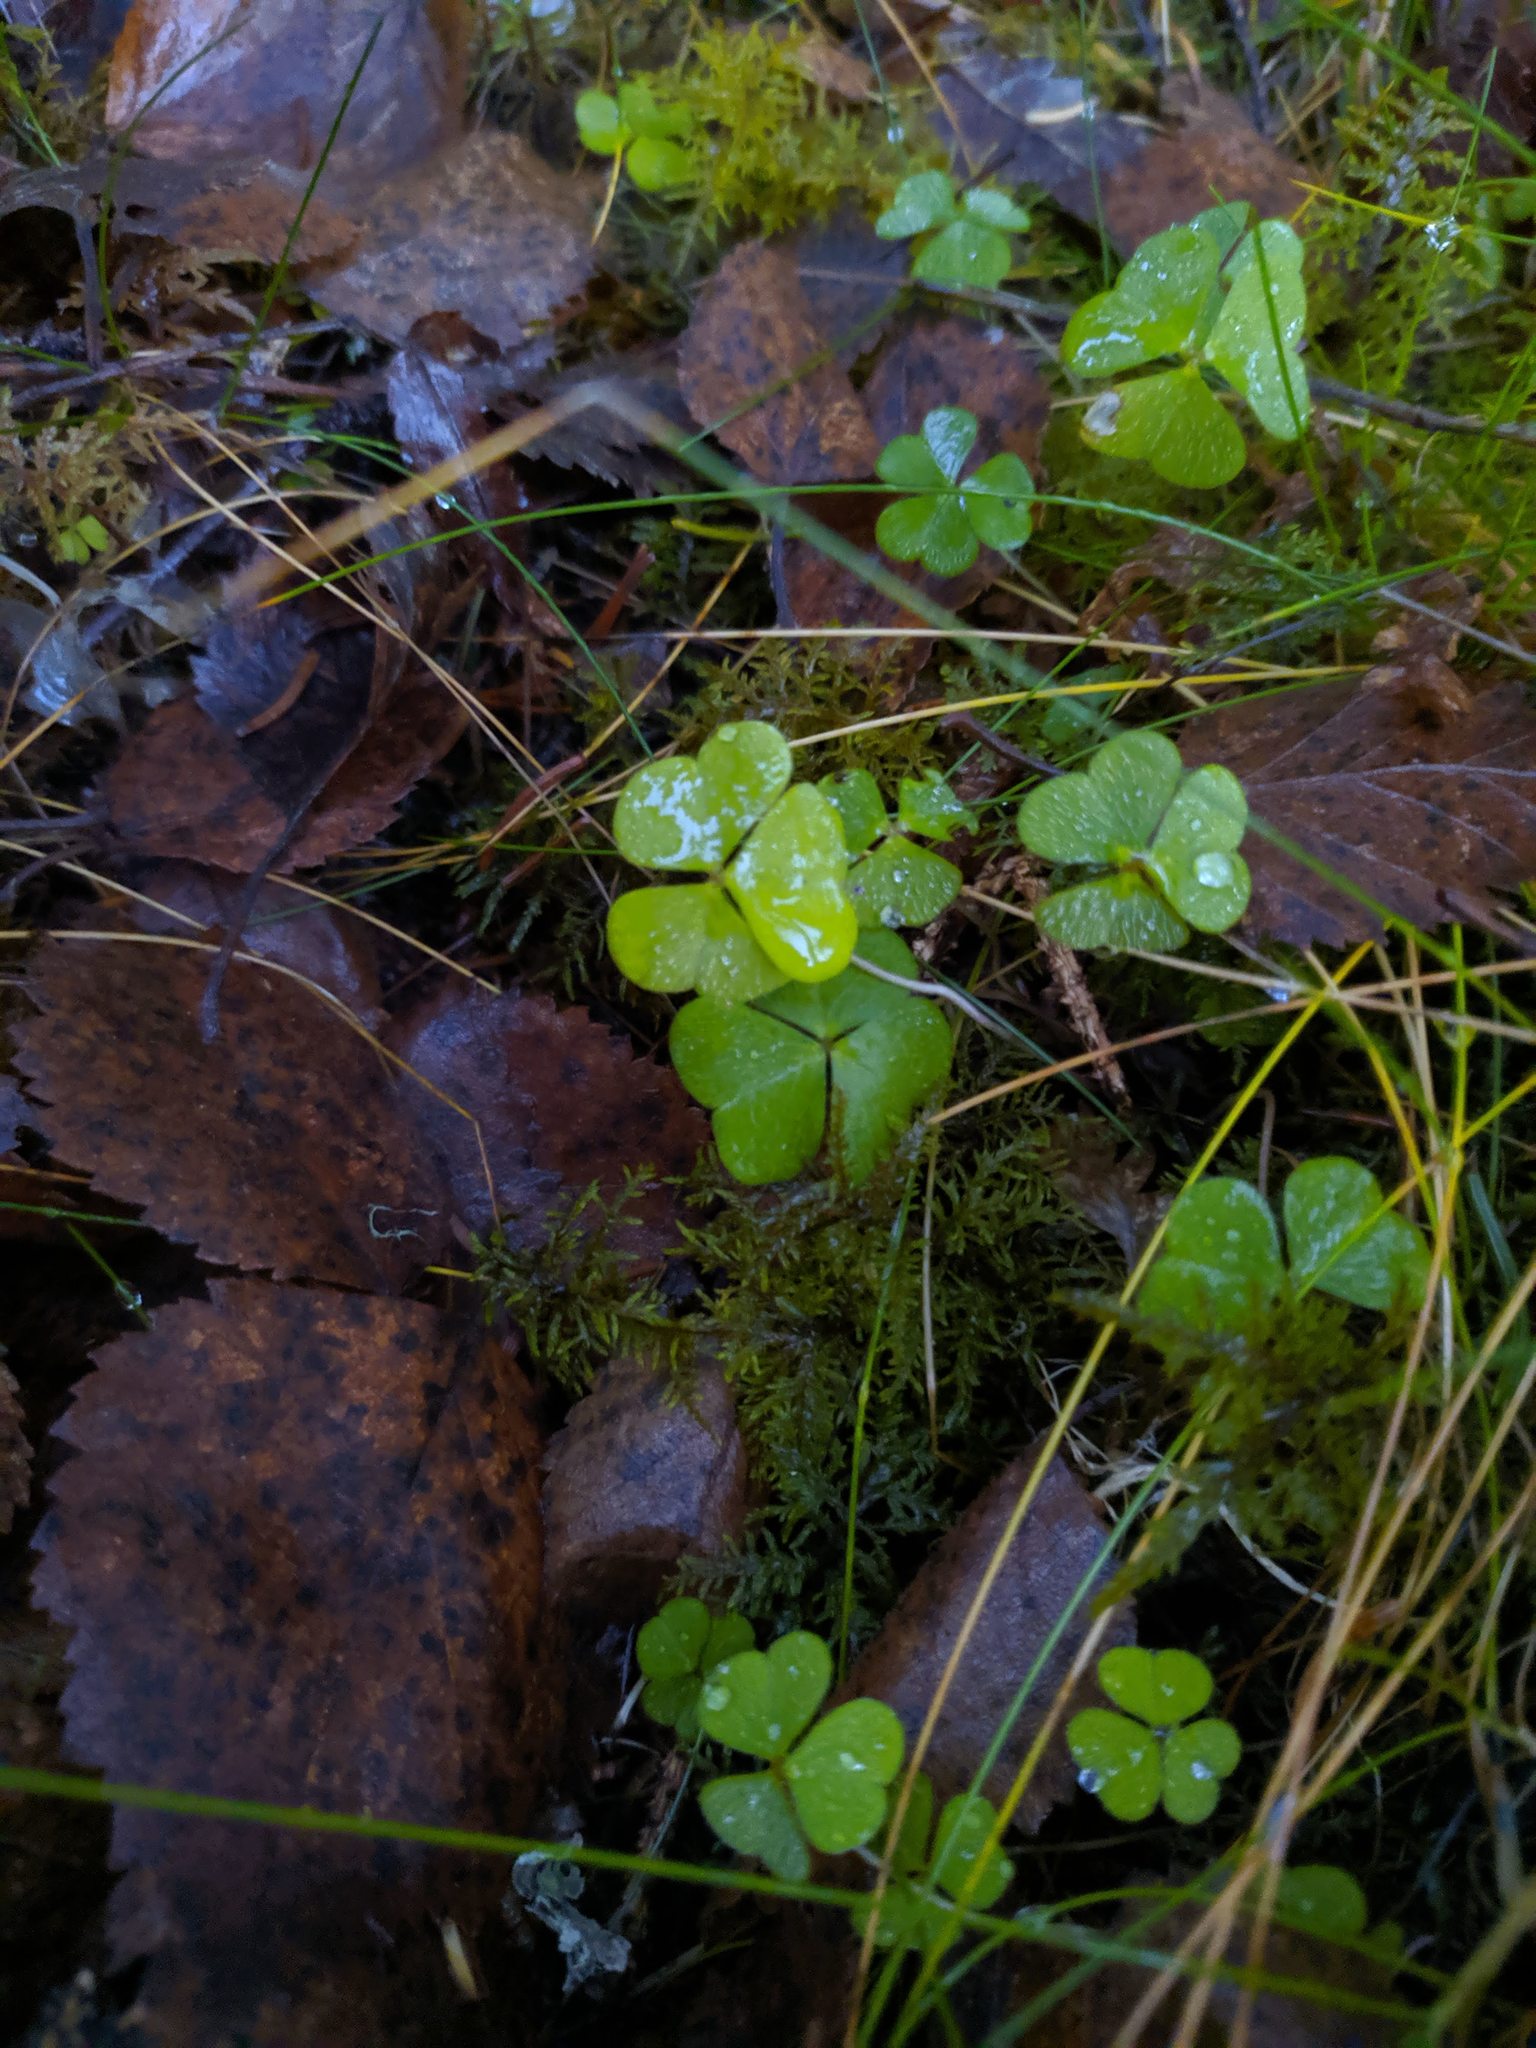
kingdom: Plantae
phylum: Tracheophyta
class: Magnoliopsida
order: Oxalidales
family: Oxalidaceae
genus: Oxalis
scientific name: Oxalis acetosella
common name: Wood-sorrel
